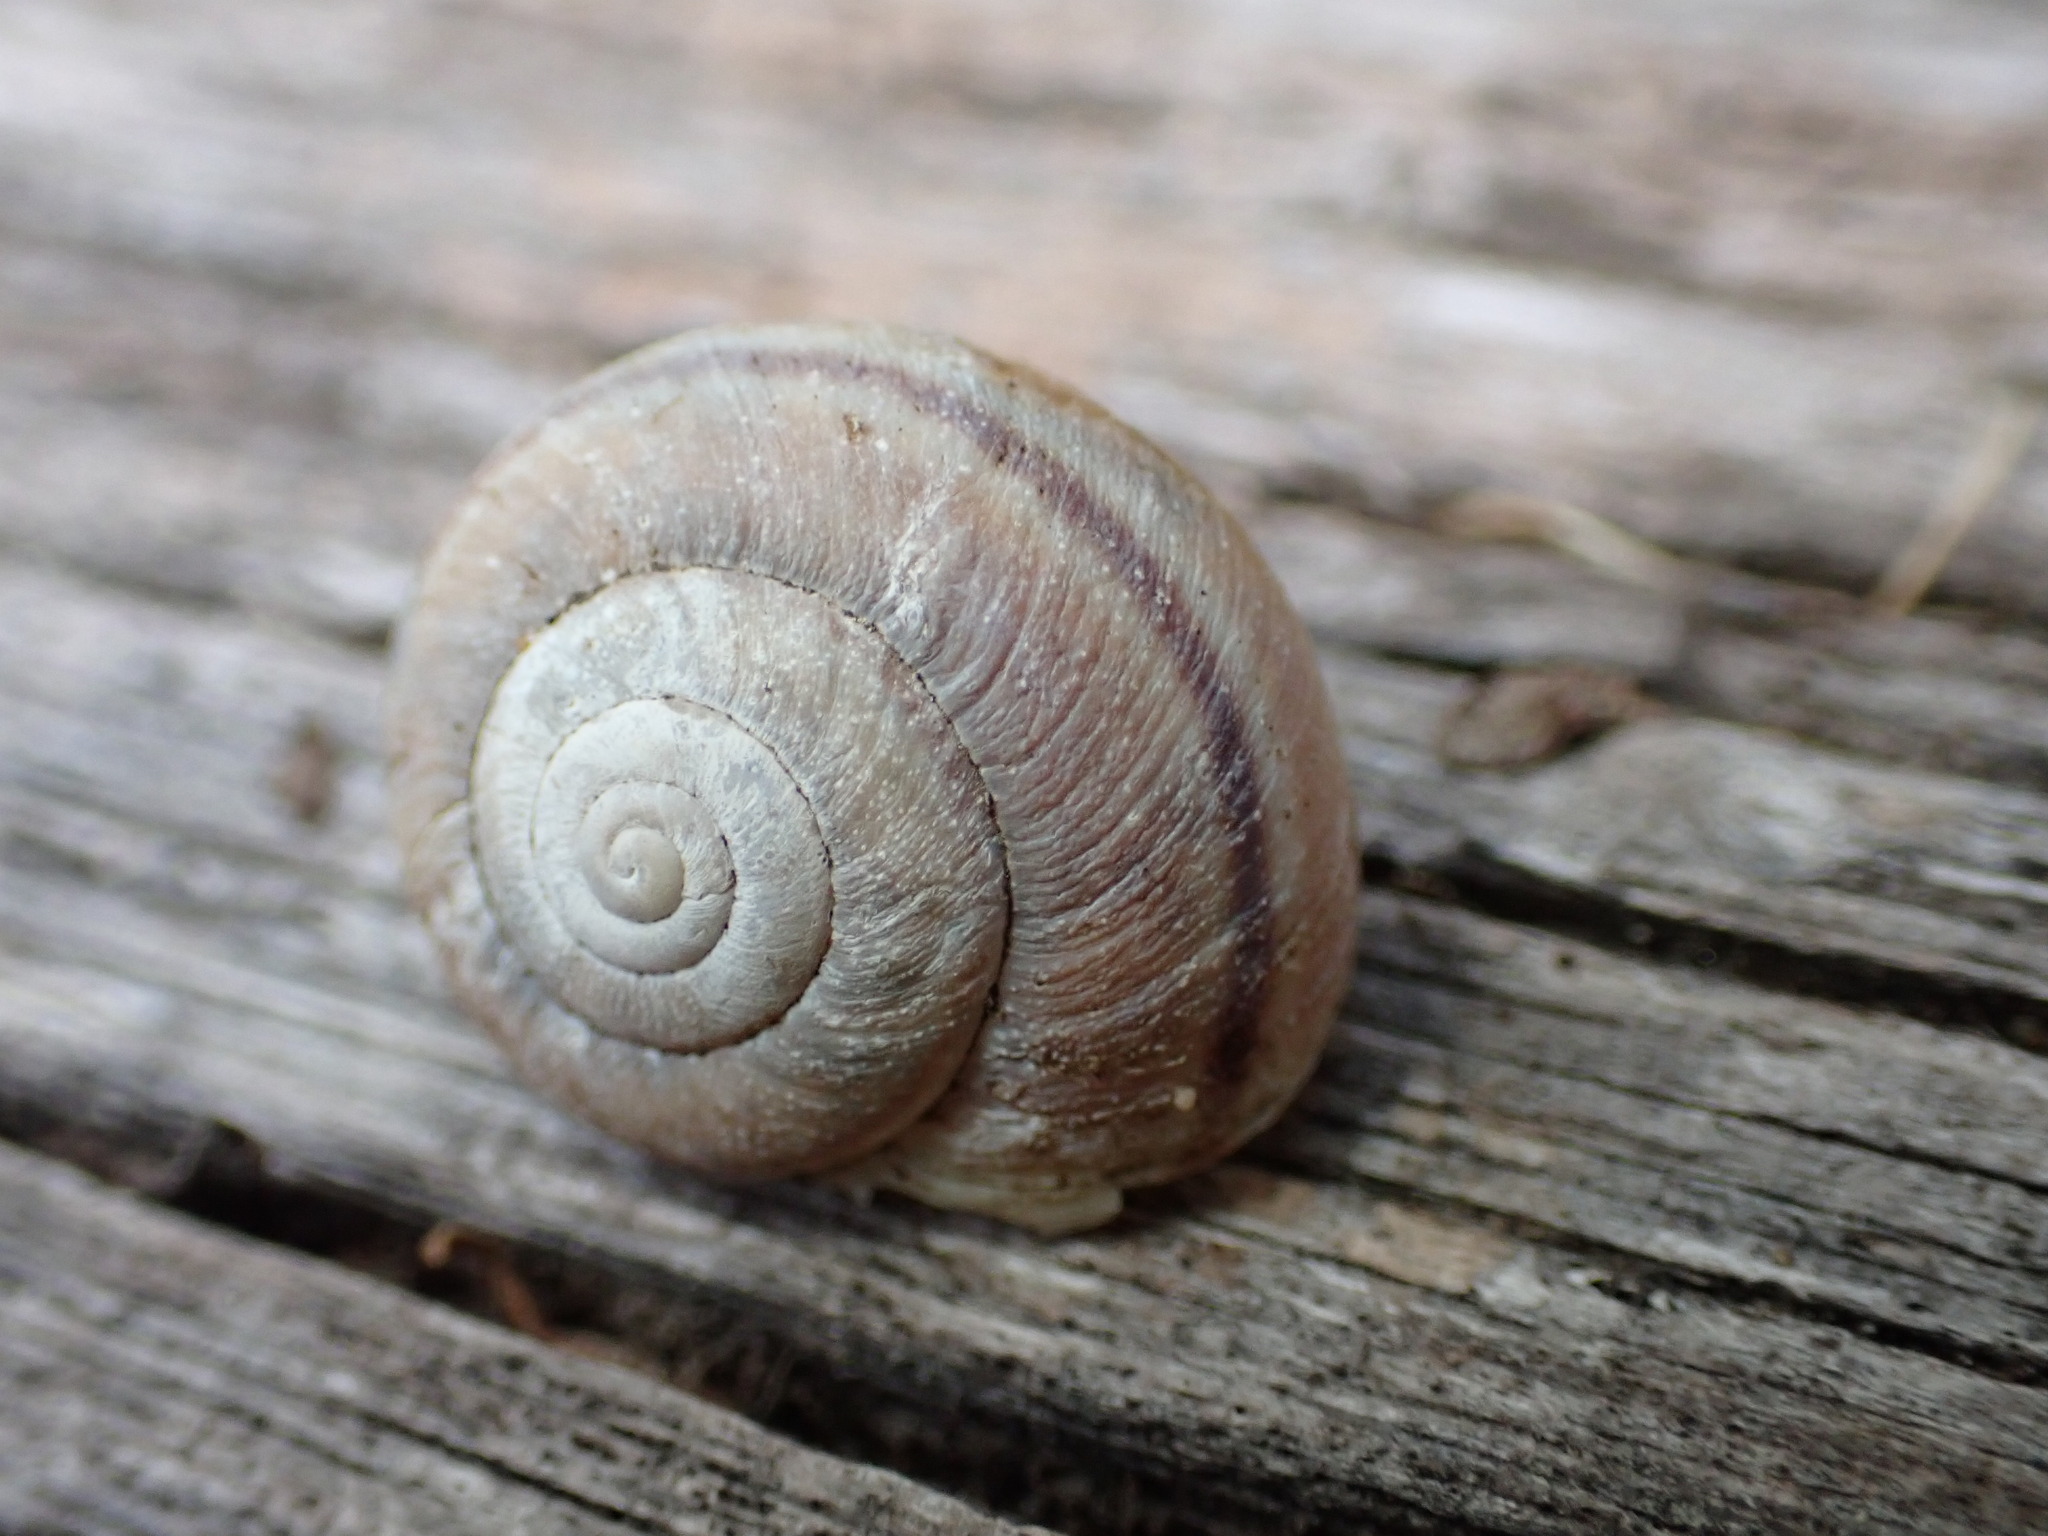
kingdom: Animalia
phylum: Mollusca
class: Gastropoda
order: Stylommatophora
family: Xanthonychidae
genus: Helminthoglypta
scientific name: Helminthoglypta walkeriana
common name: Banded dune snail
